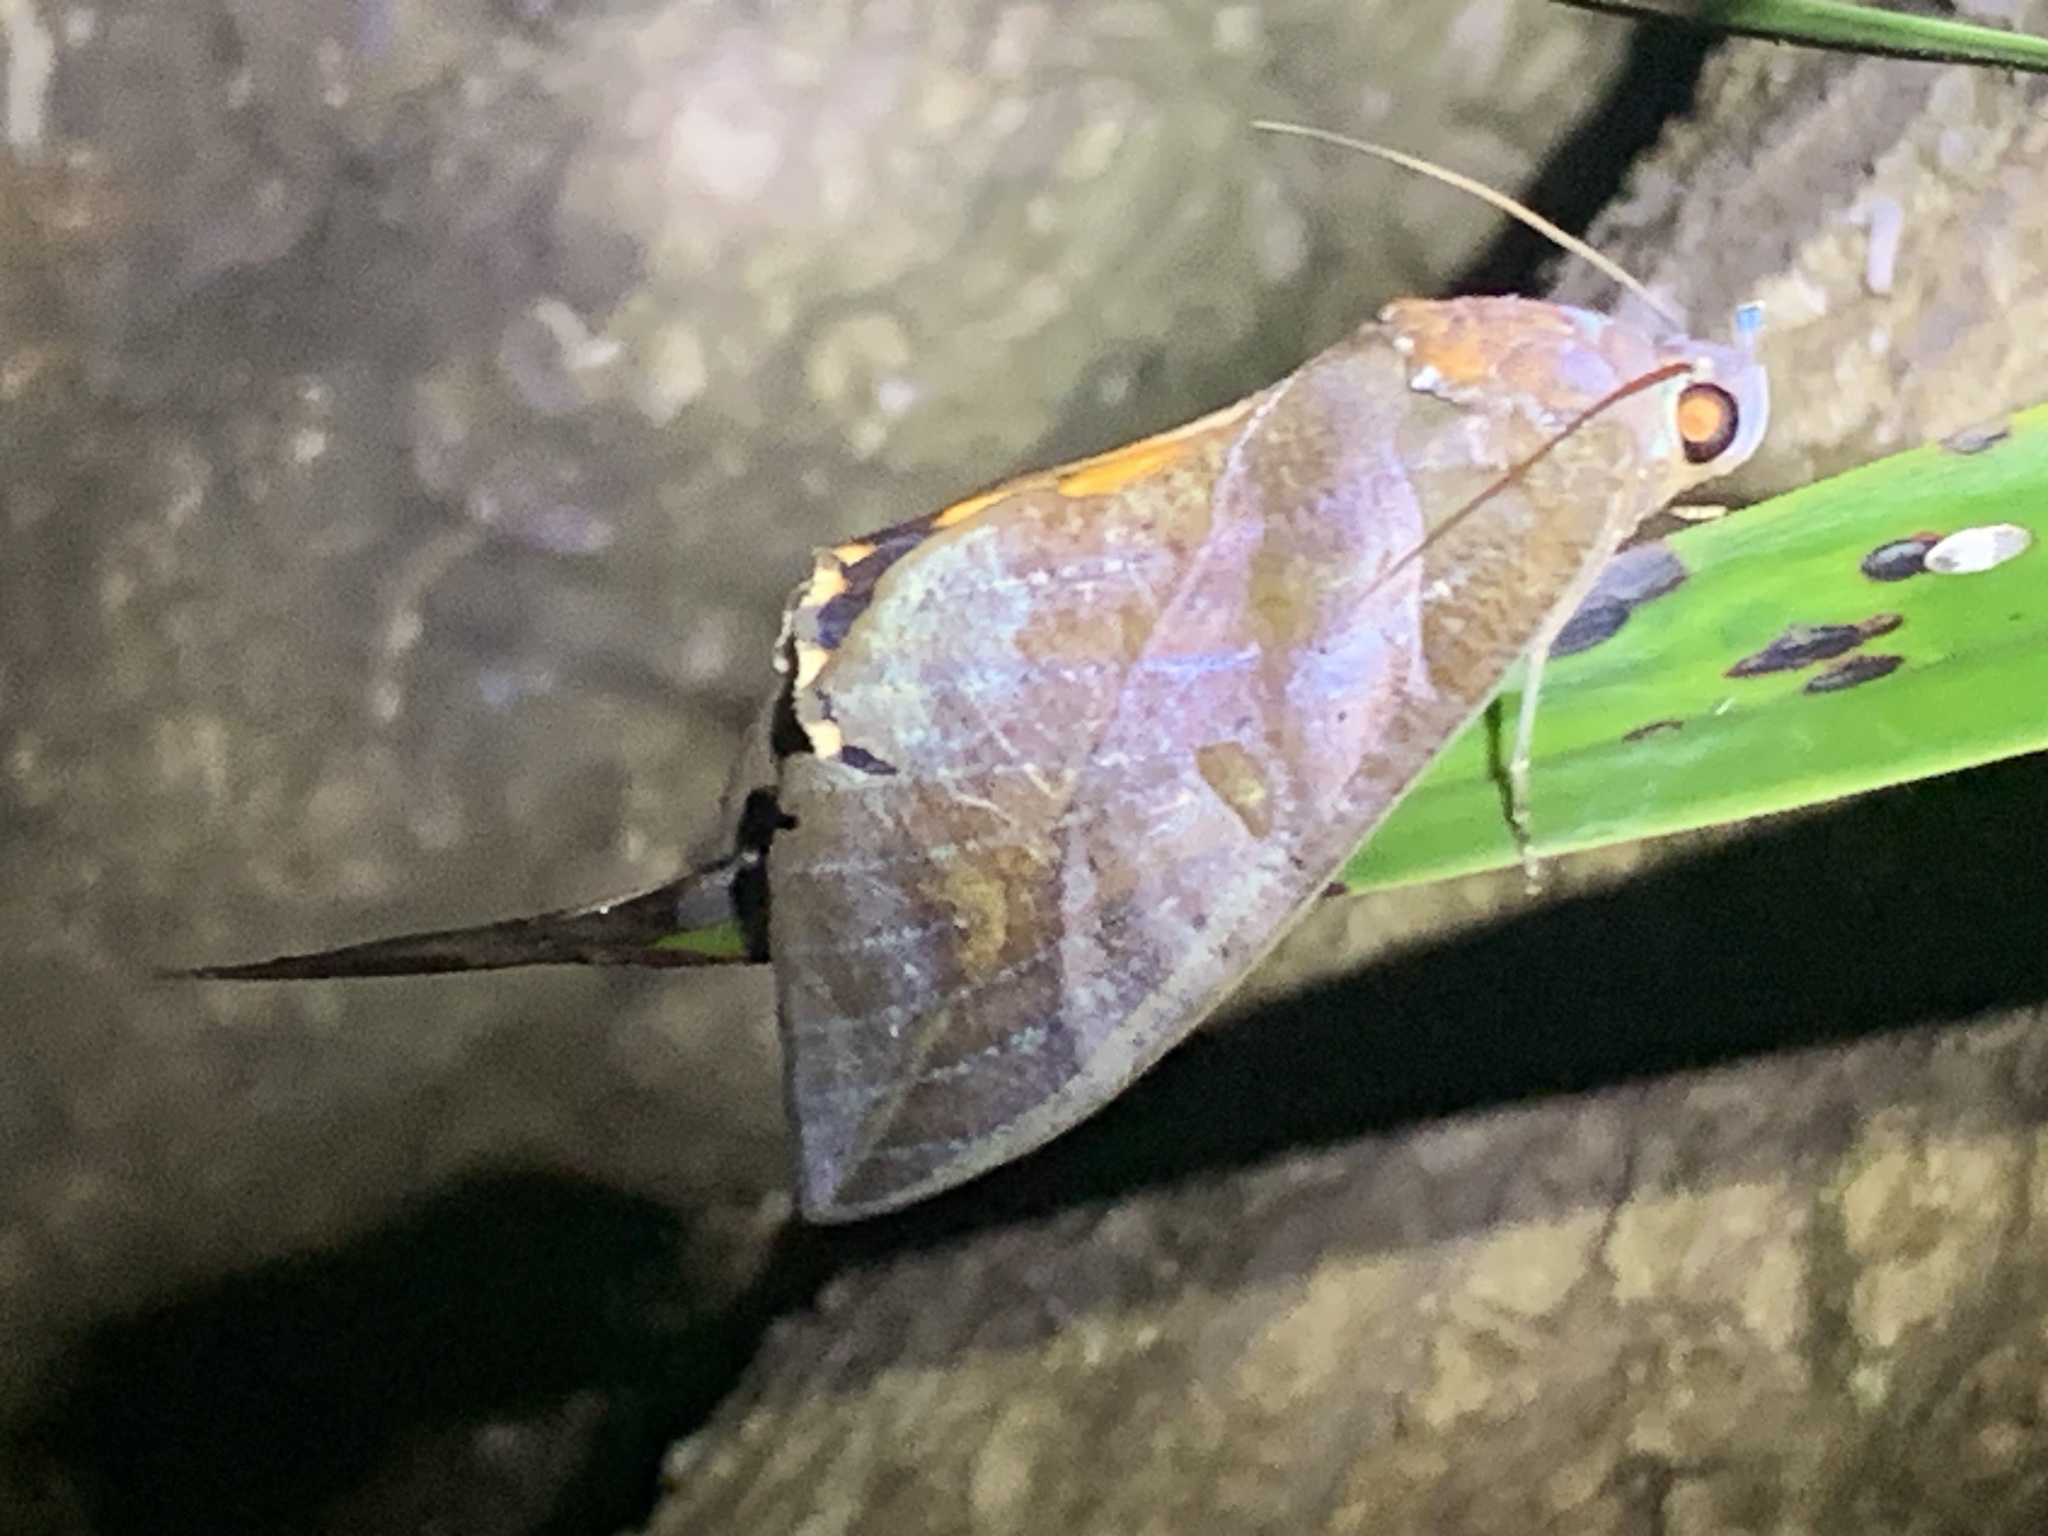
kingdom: Animalia
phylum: Arthropoda
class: Insecta
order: Lepidoptera
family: Erebidae
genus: Eudocima
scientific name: Eudocima phalonia
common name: Wasp
